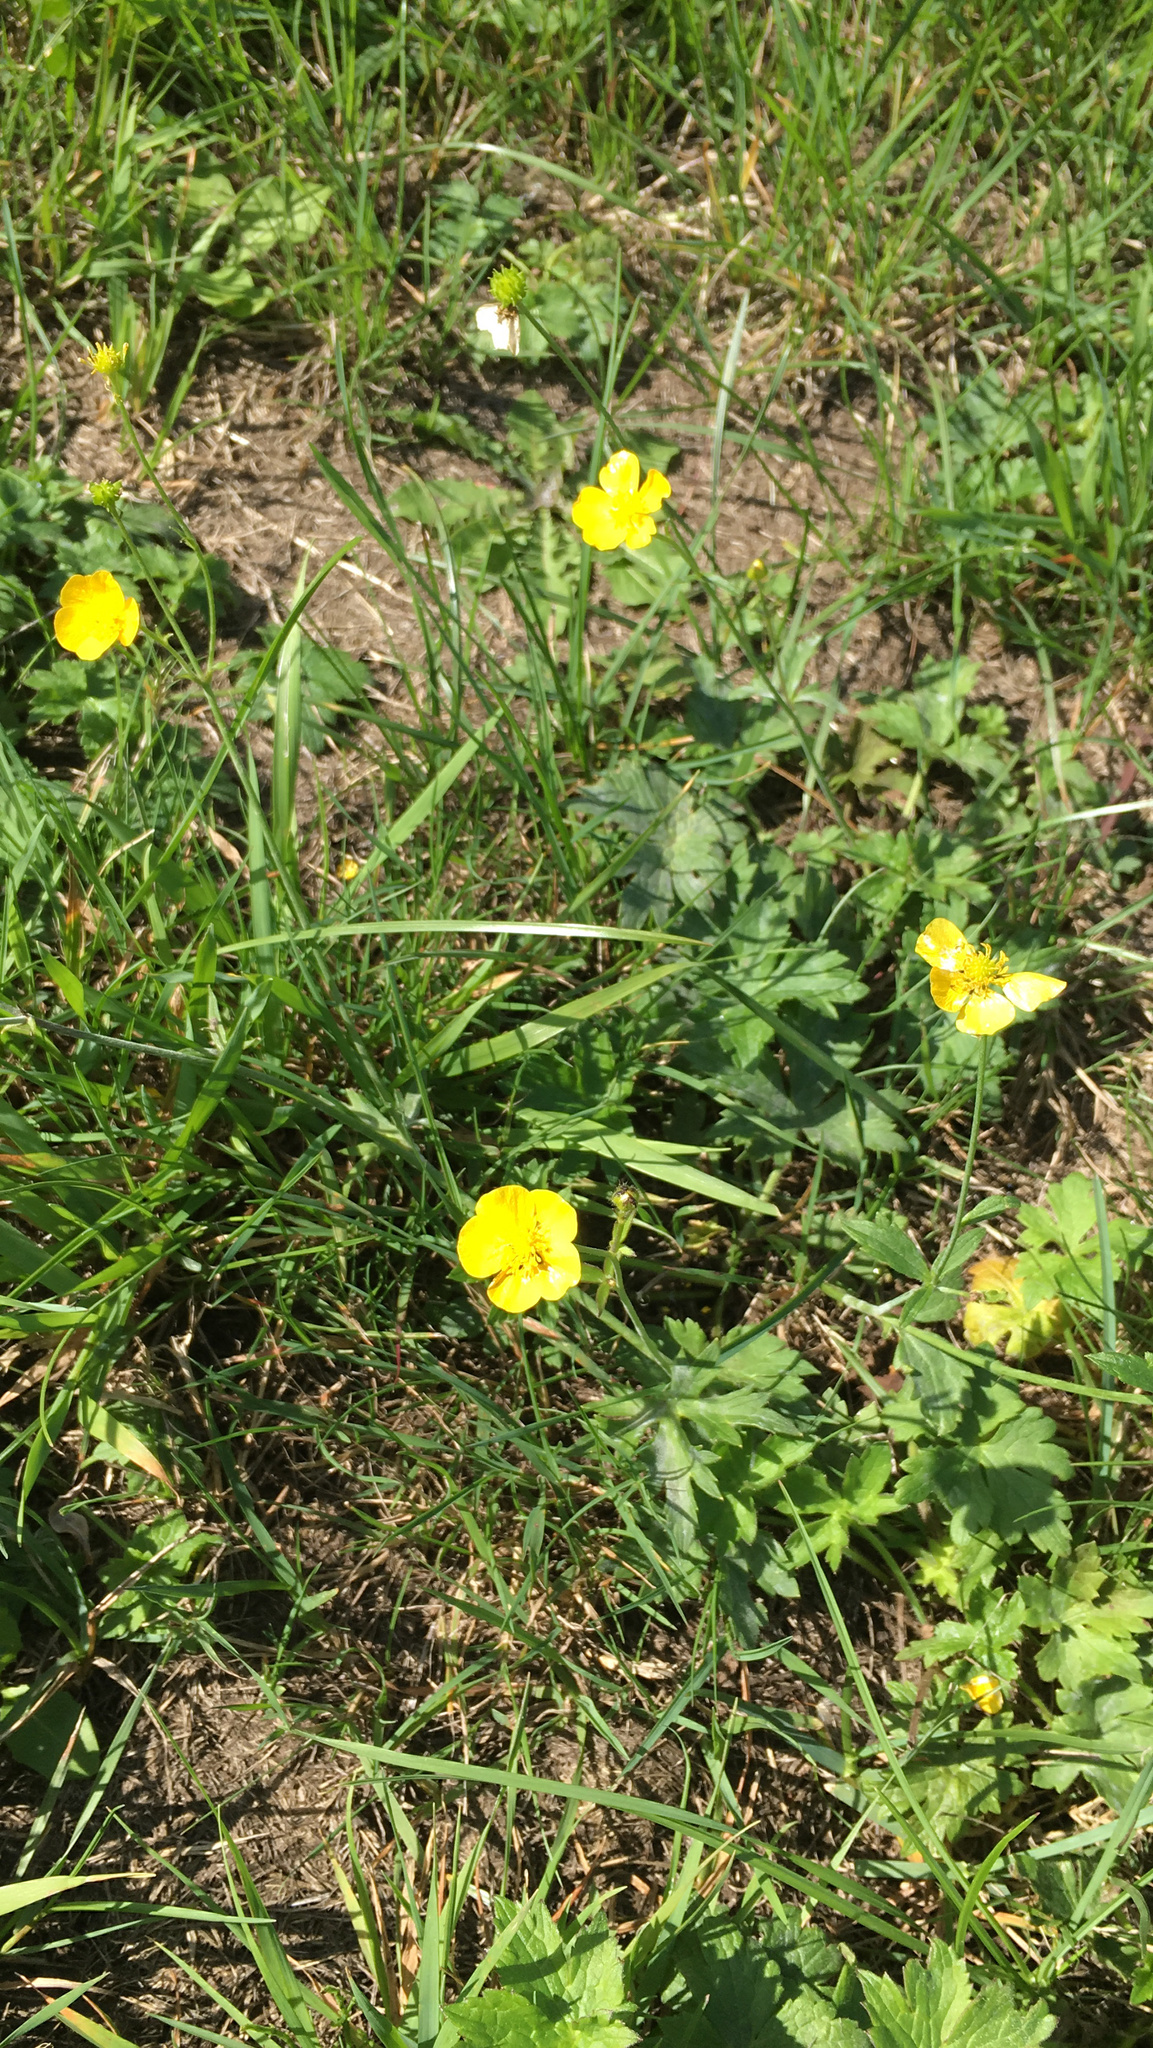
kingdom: Plantae
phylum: Tracheophyta
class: Magnoliopsida
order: Ranunculales
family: Ranunculaceae
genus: Ranunculus
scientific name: Ranunculus repens
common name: Creeping buttercup
